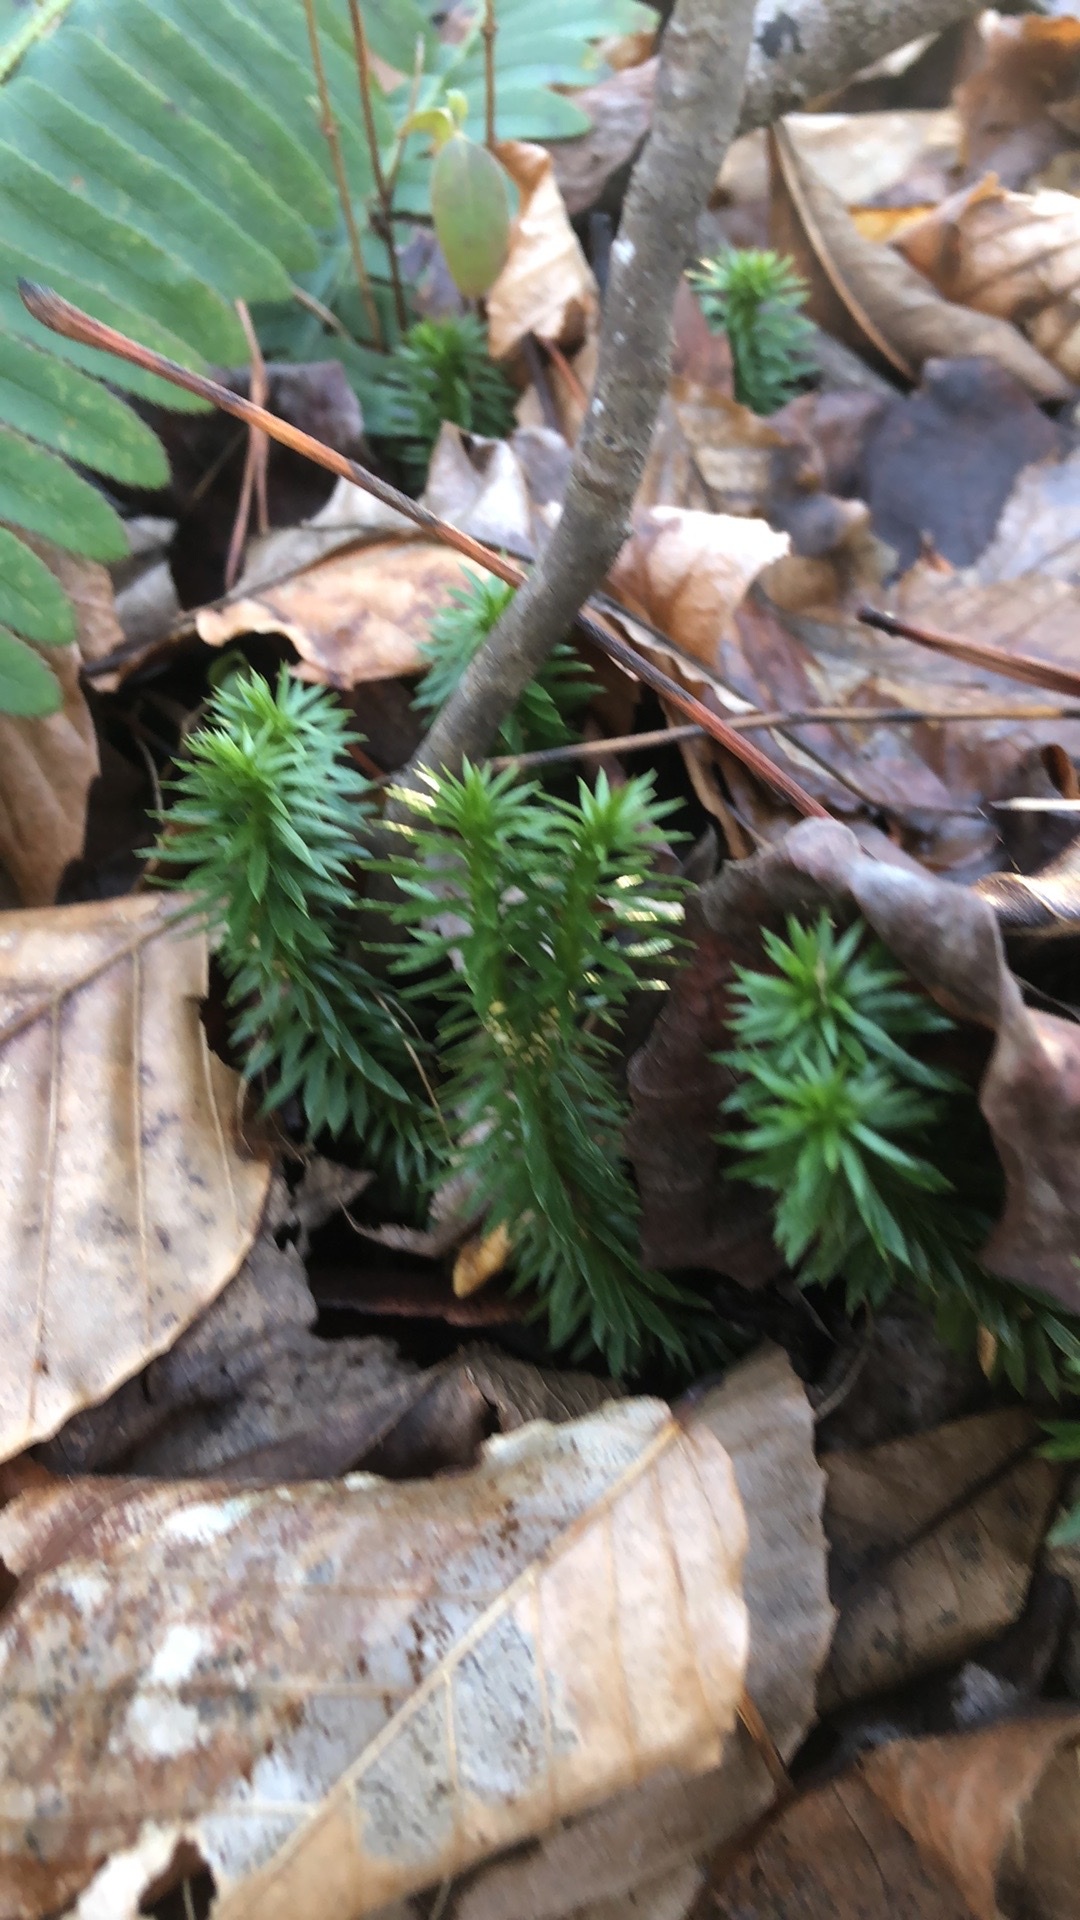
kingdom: Plantae
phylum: Tracheophyta
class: Lycopodiopsida
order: Lycopodiales
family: Lycopodiaceae
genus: Huperzia
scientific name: Huperzia lucidula
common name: Shining clubmoss
